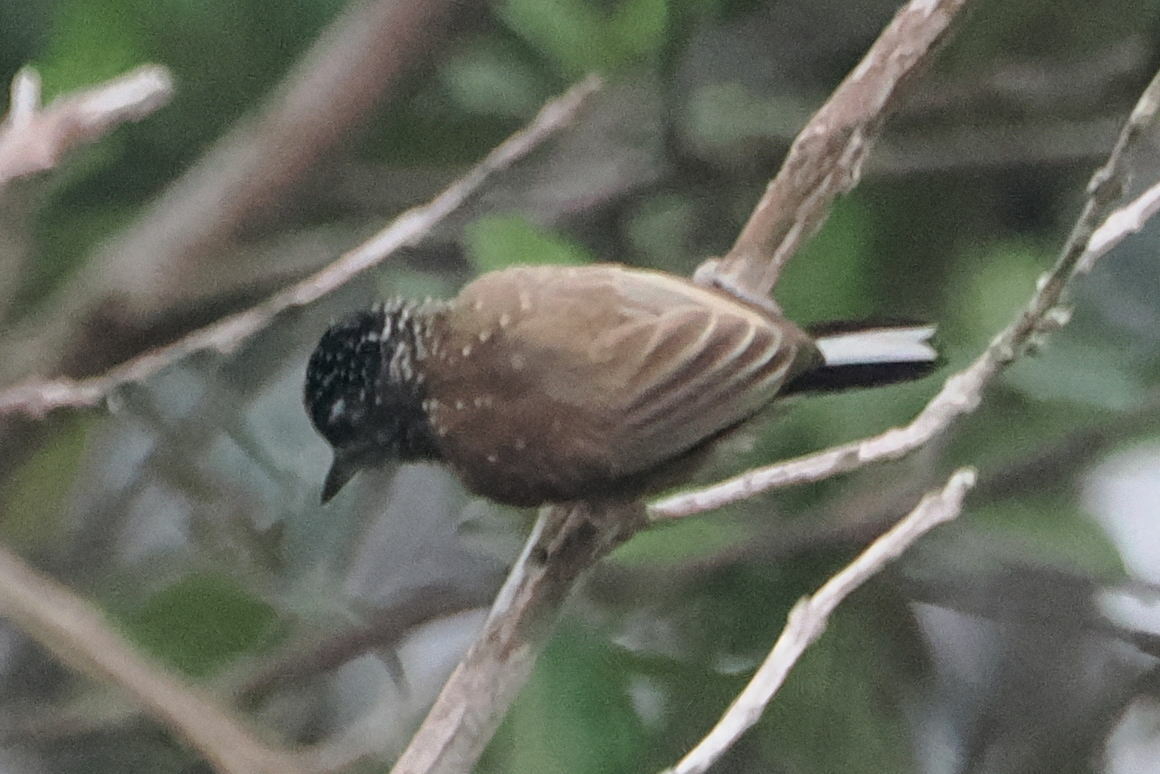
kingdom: Animalia
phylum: Chordata
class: Aves
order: Piciformes
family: Picidae
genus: Picumnus
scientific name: Picumnus pygmaeus
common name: Spotted piculet
